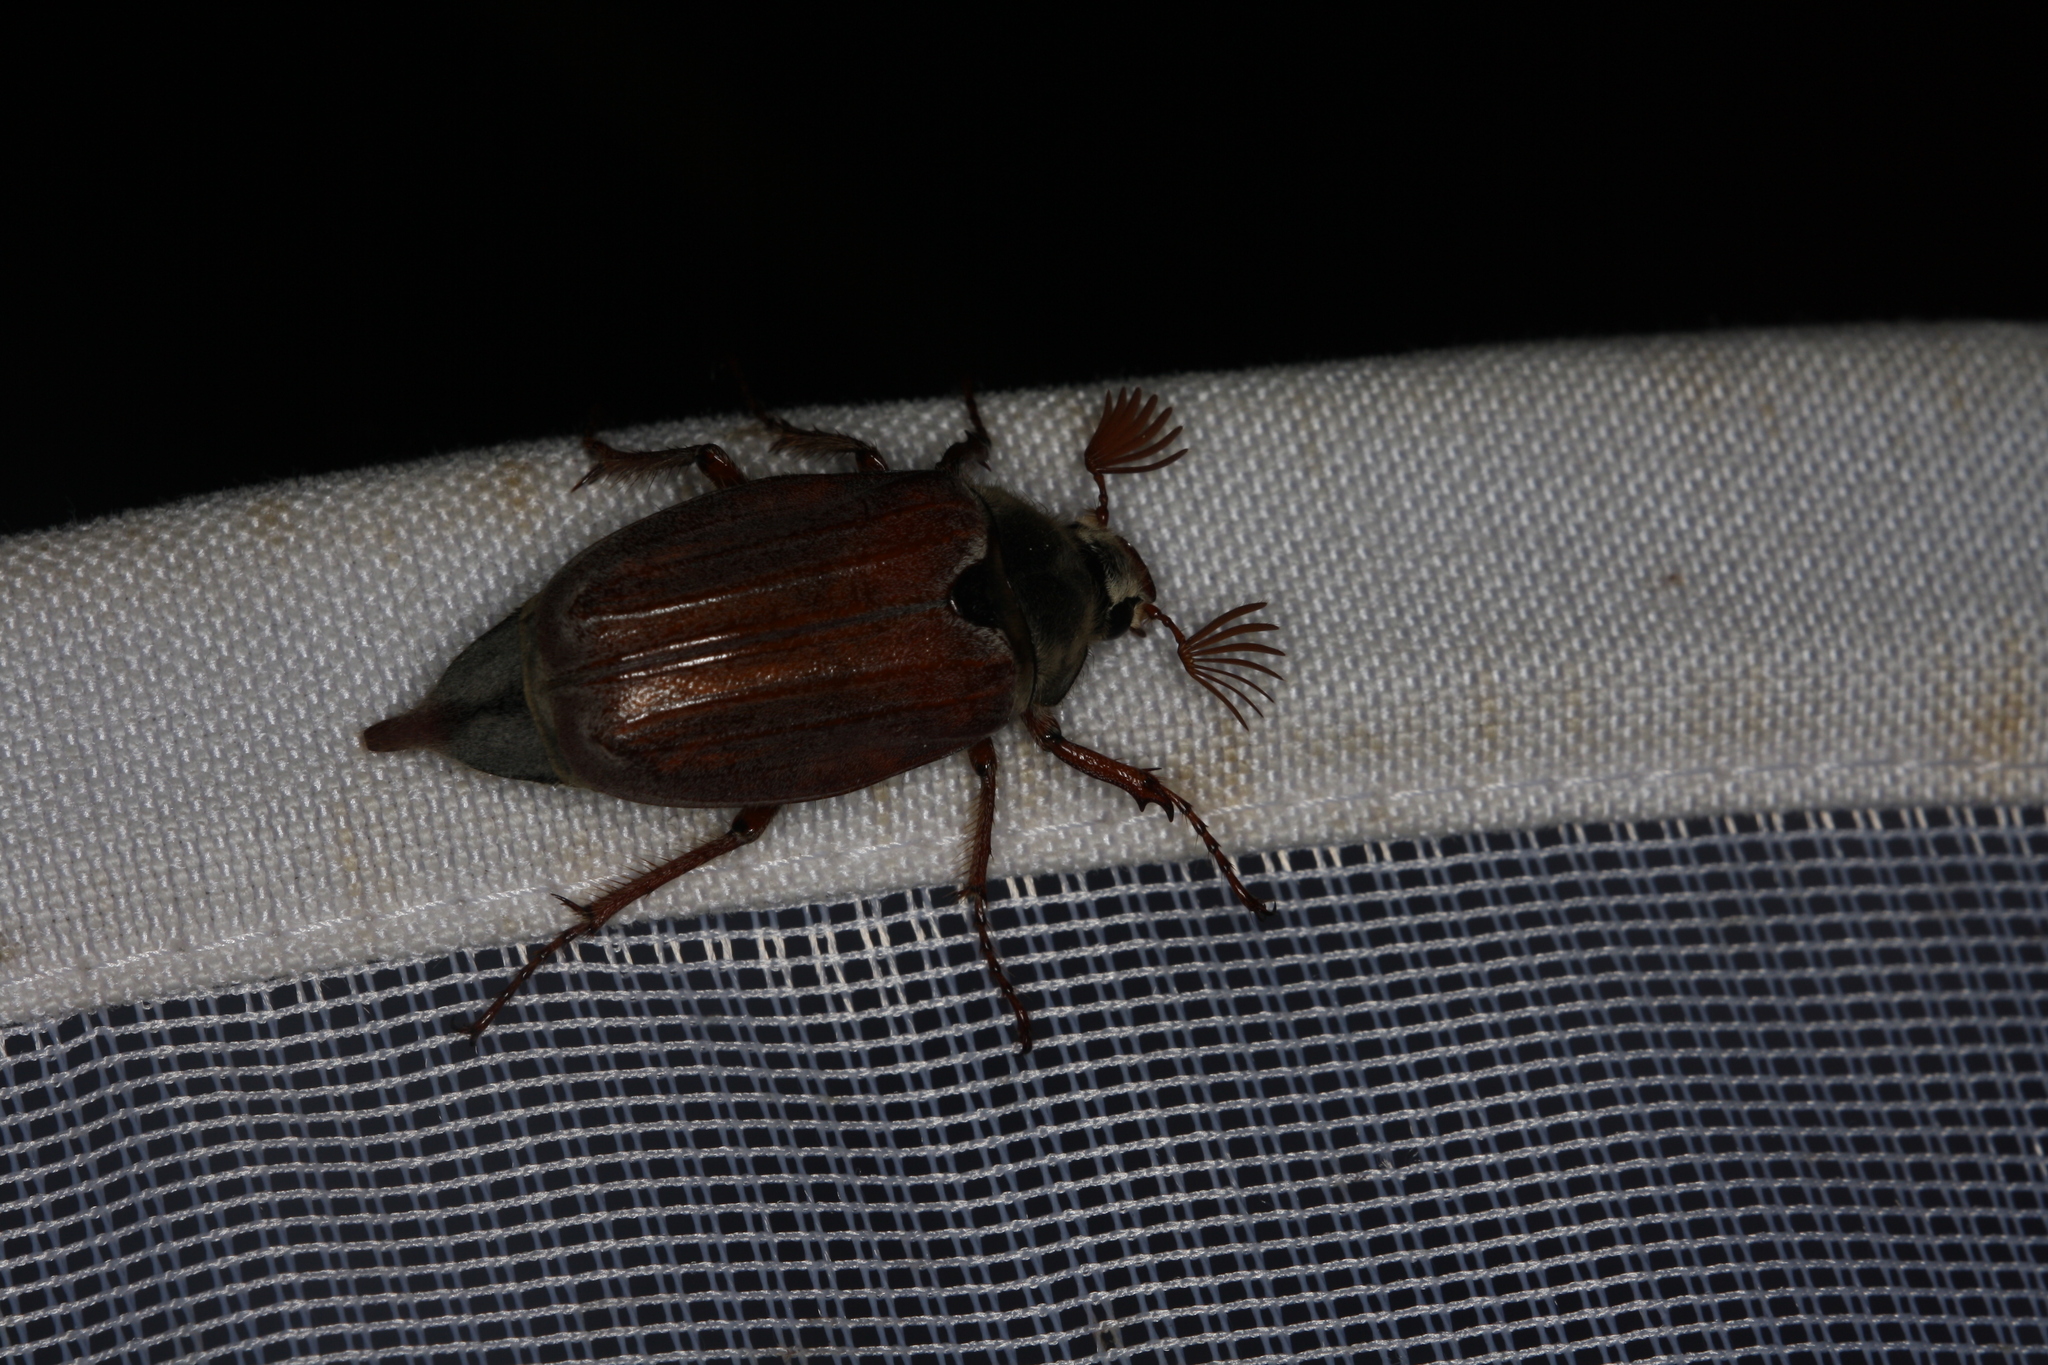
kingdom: Animalia
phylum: Arthropoda
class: Insecta
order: Coleoptera
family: Scarabaeidae
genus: Melolontha
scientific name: Melolontha melolontha
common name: Cockchafer maybeetle
